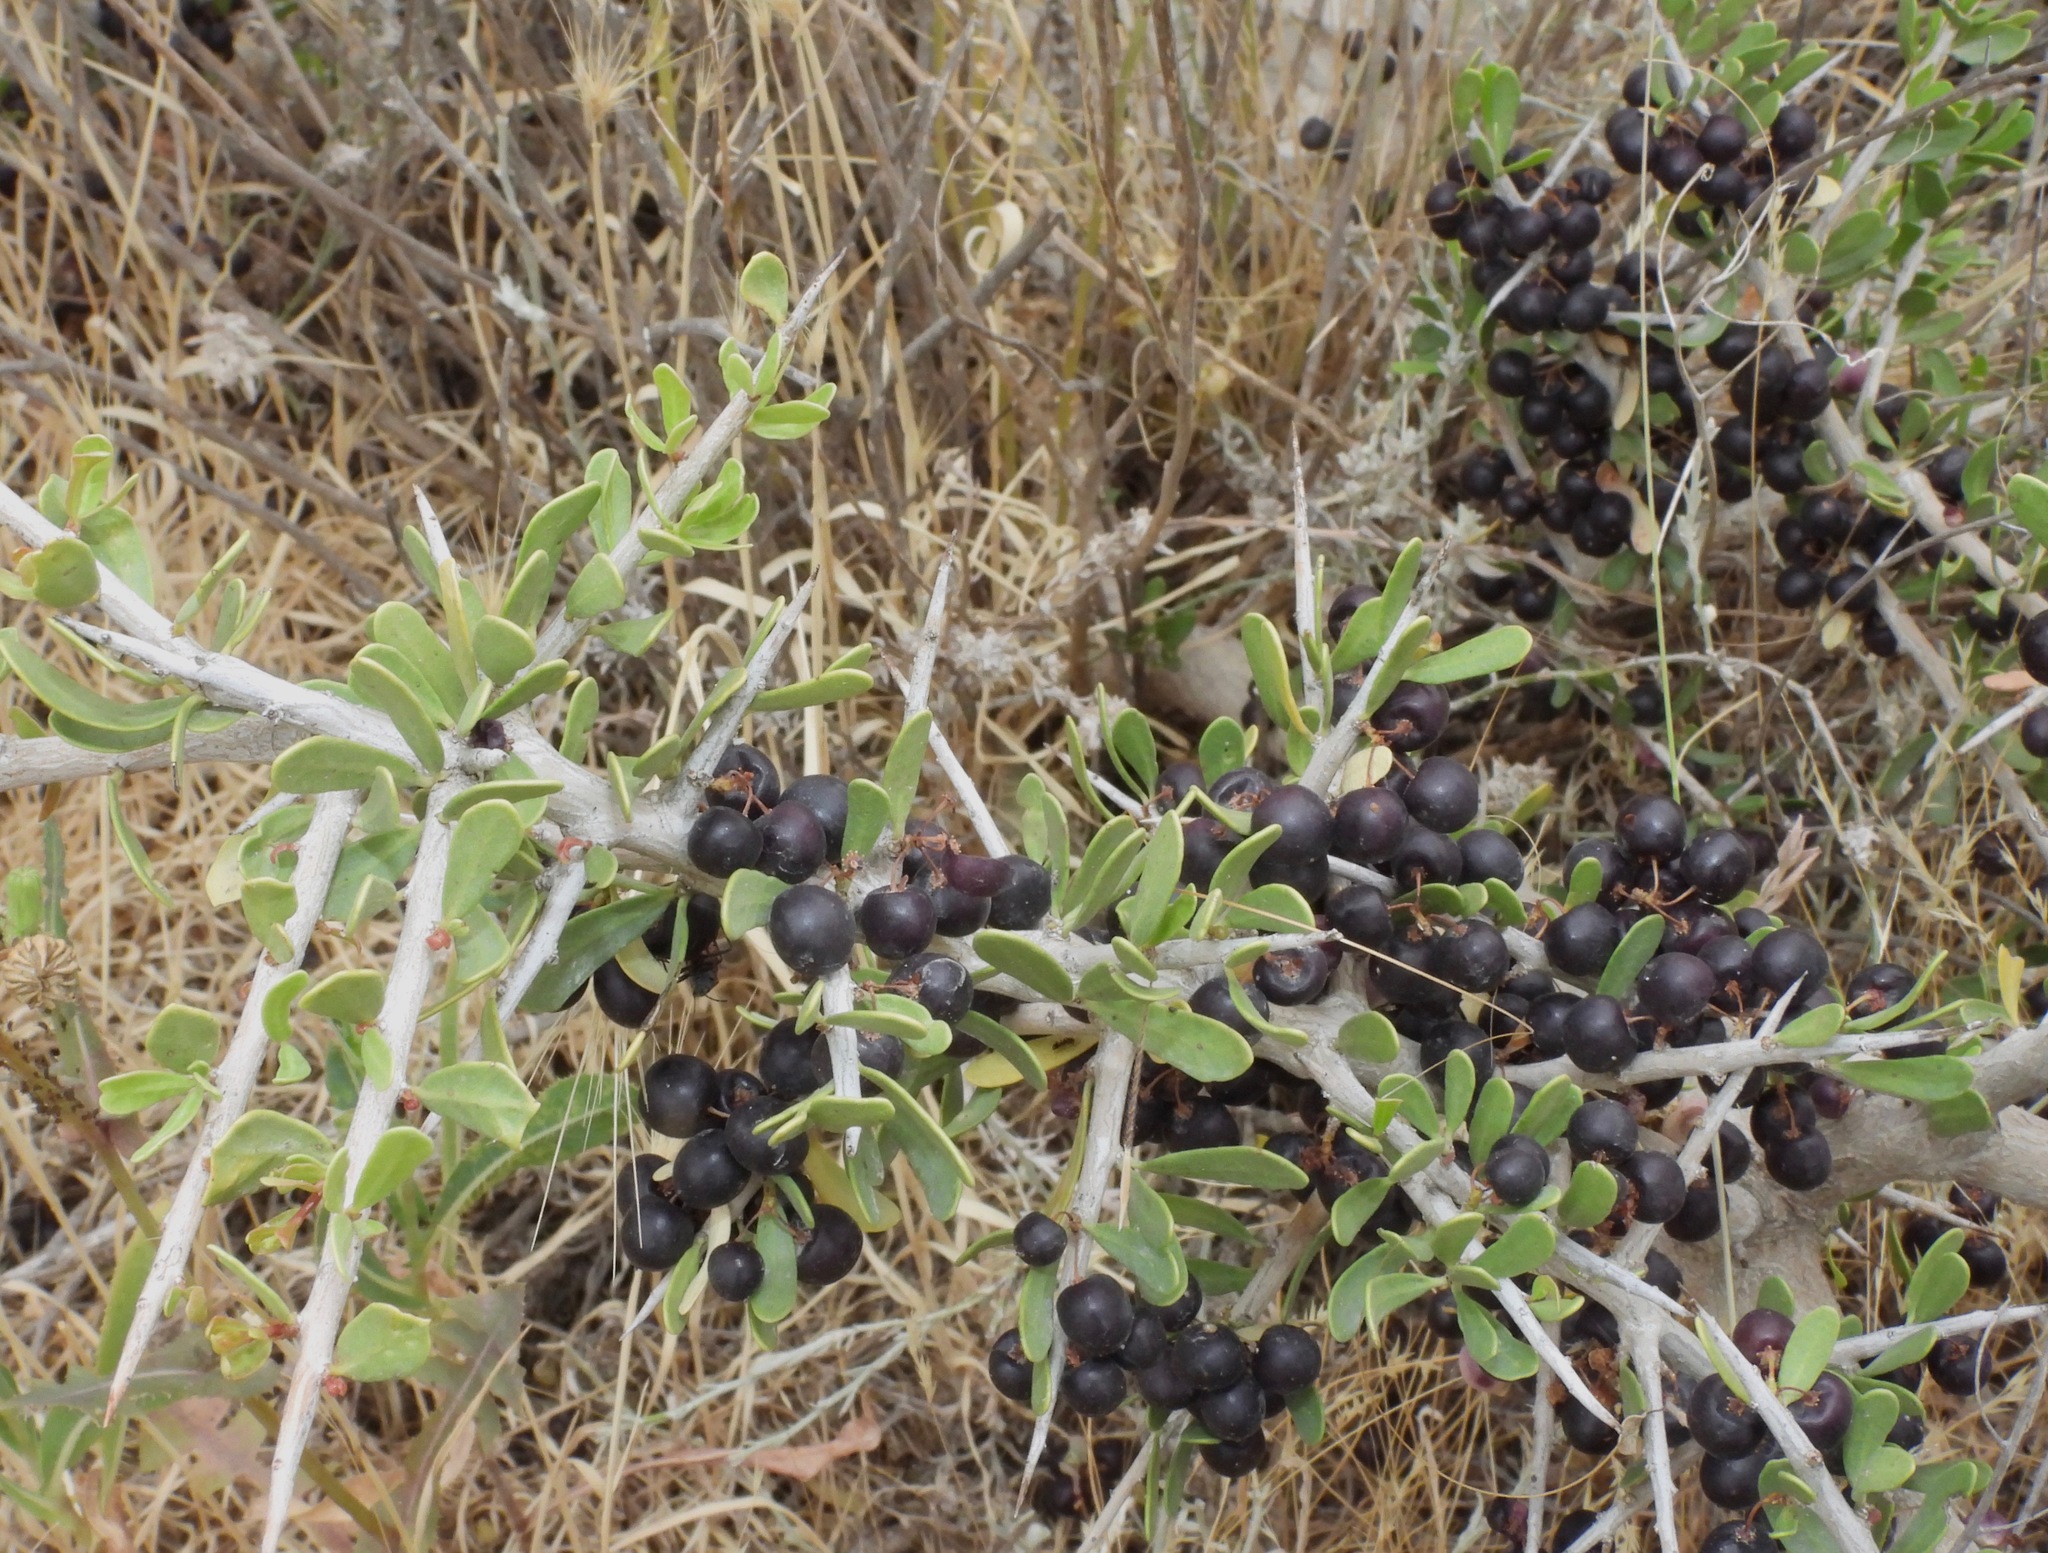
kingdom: Plantae
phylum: Tracheophyta
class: Magnoliopsida
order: Sapindales
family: Anacardiaceae
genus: Schinus
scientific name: Schinus johnstonii
